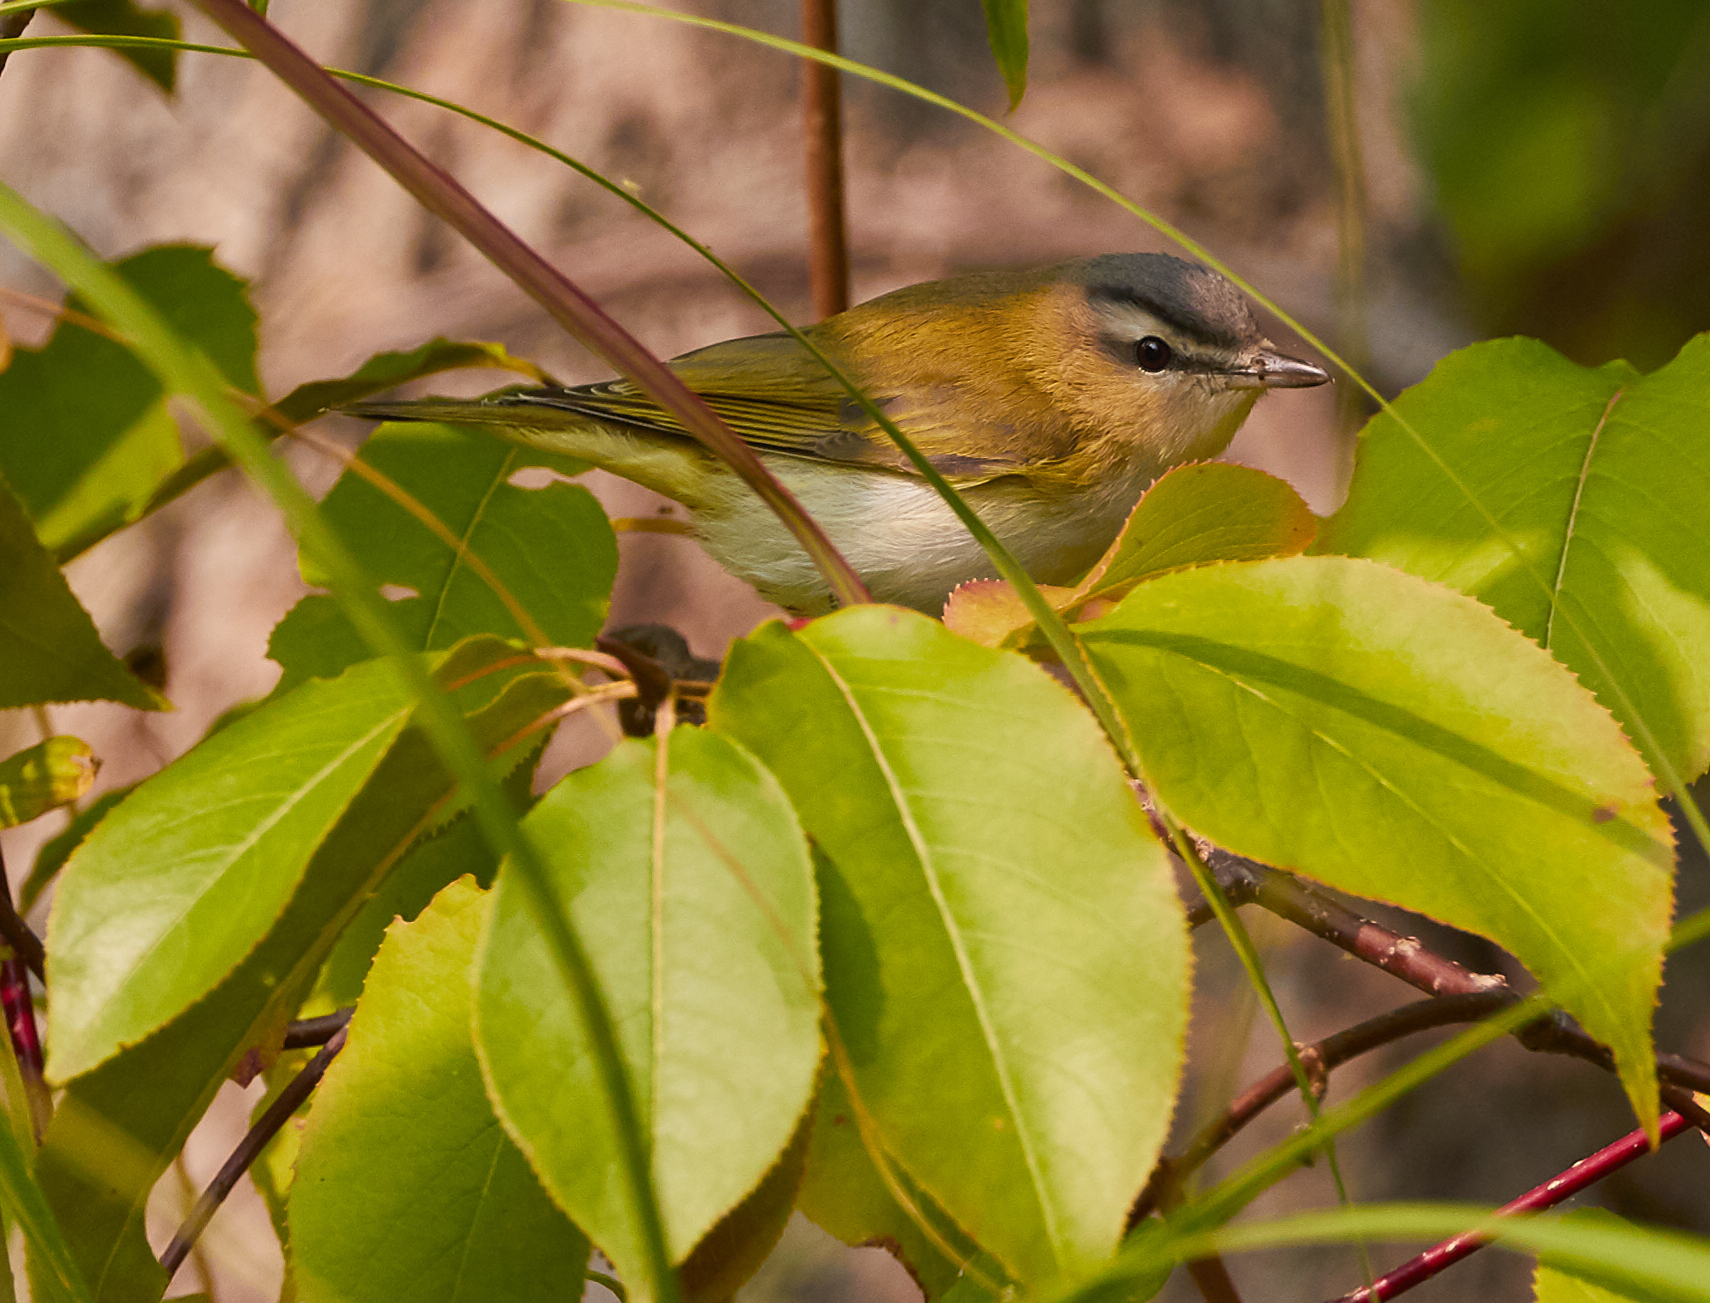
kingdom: Animalia
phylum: Chordata
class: Aves
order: Passeriformes
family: Vireonidae
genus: Vireo
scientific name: Vireo olivaceus
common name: Red-eyed vireo
